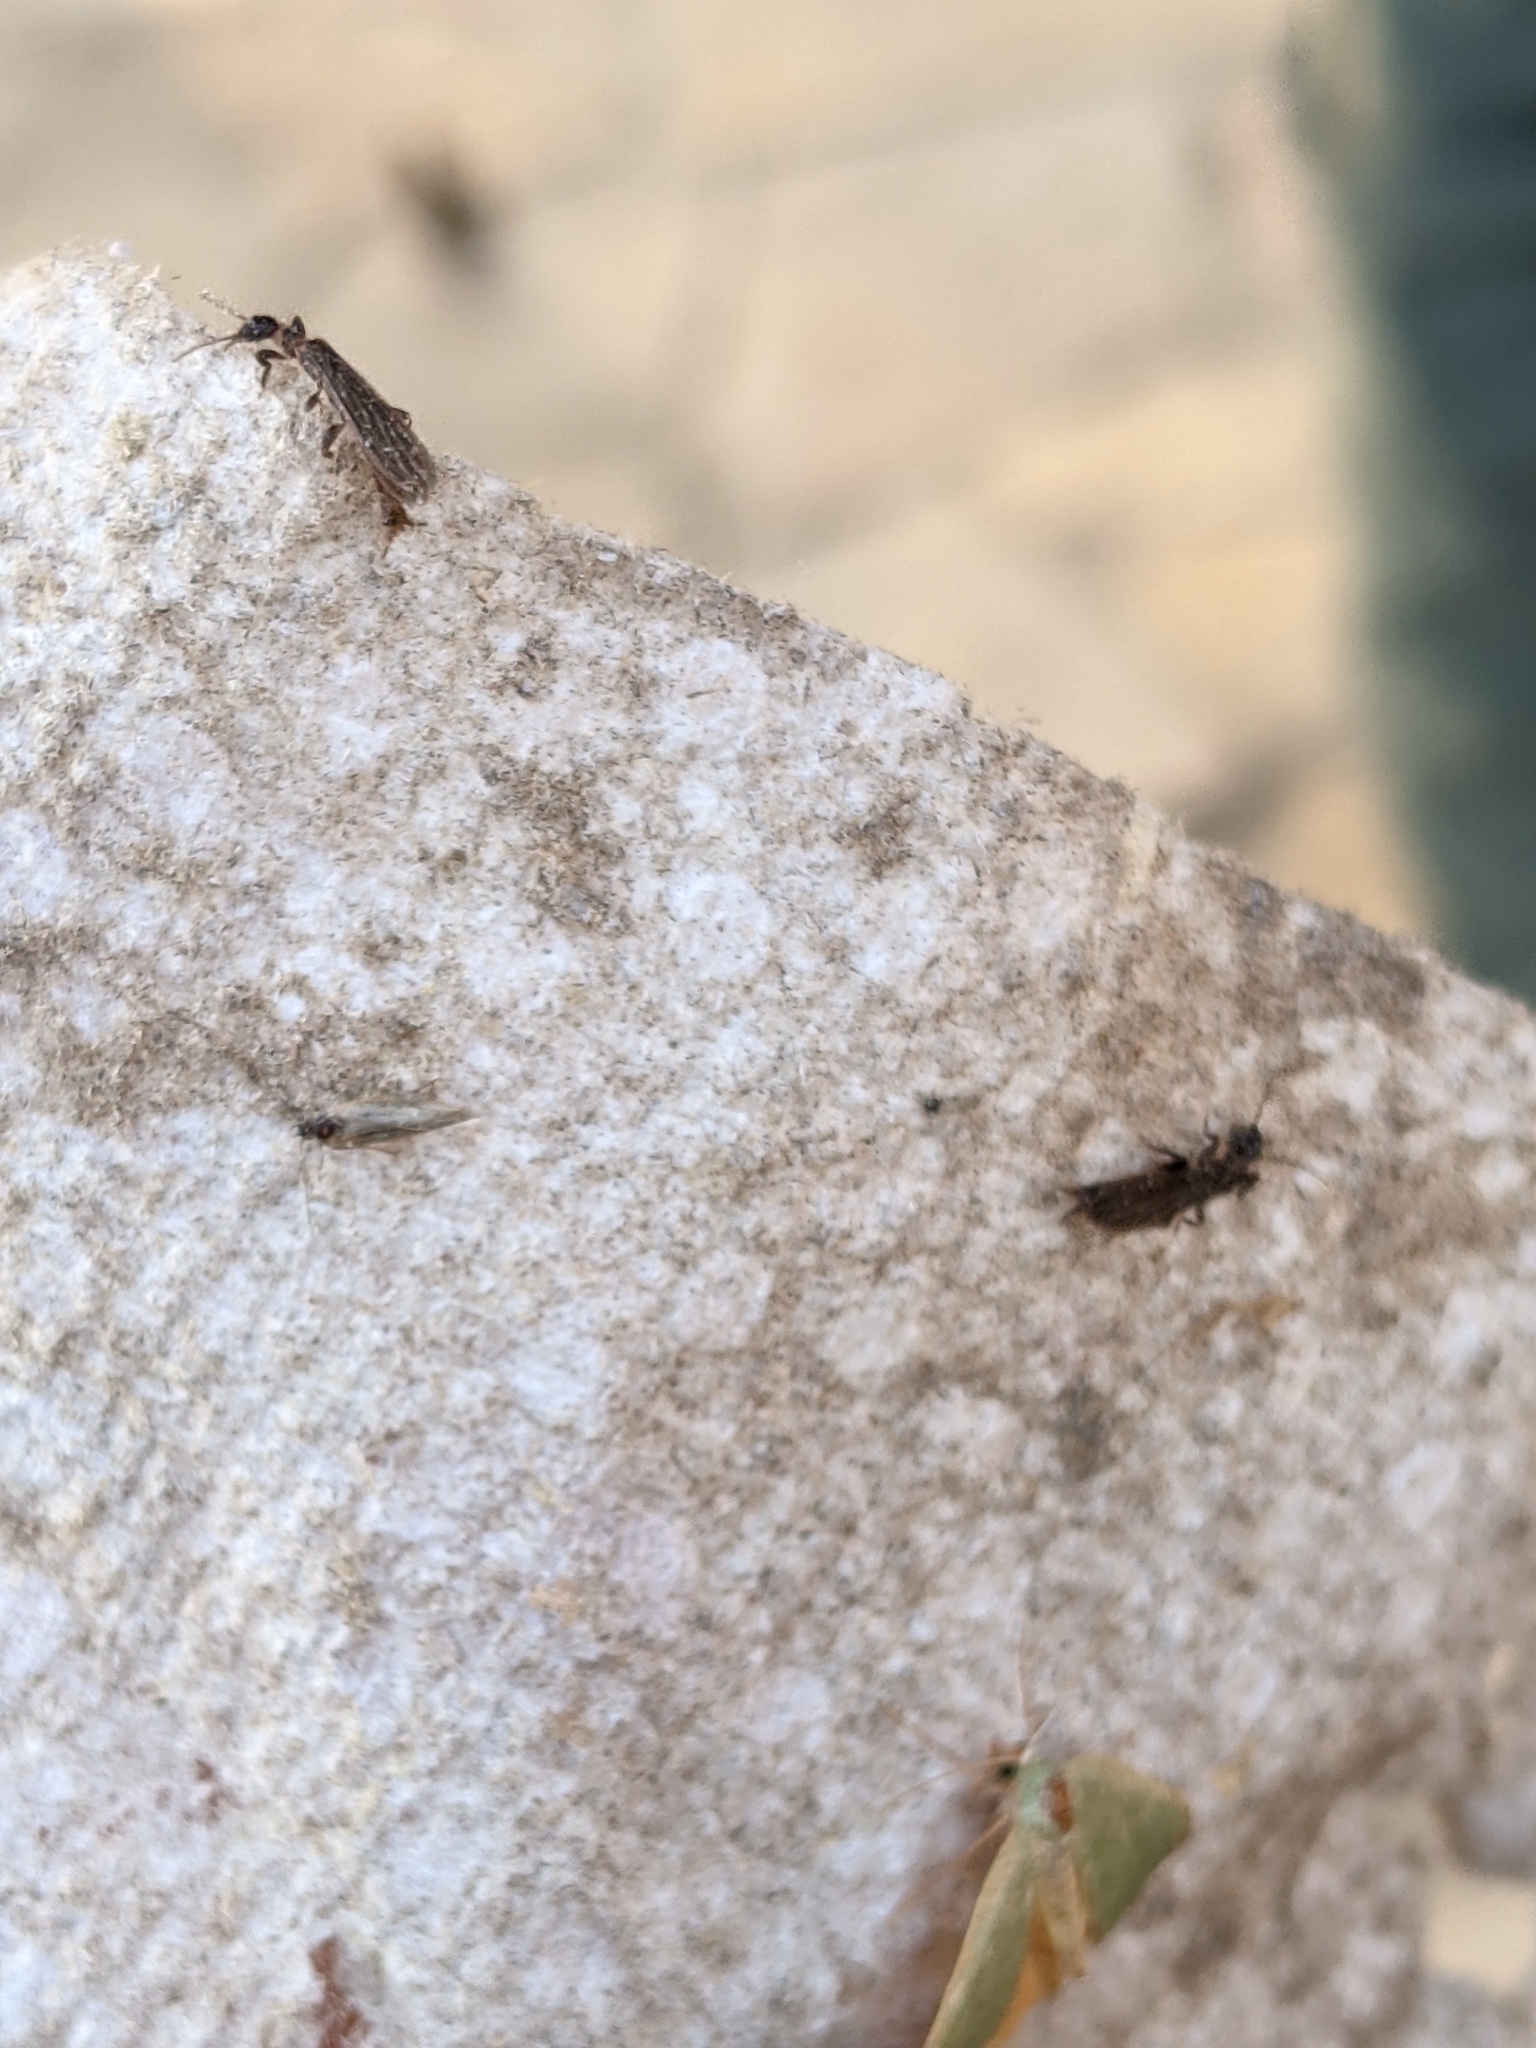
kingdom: Animalia
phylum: Arthropoda
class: Insecta
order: Embioptera
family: Oligotomidae
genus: Oligotoma
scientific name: Oligotoma nigra
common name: Black webspinner
